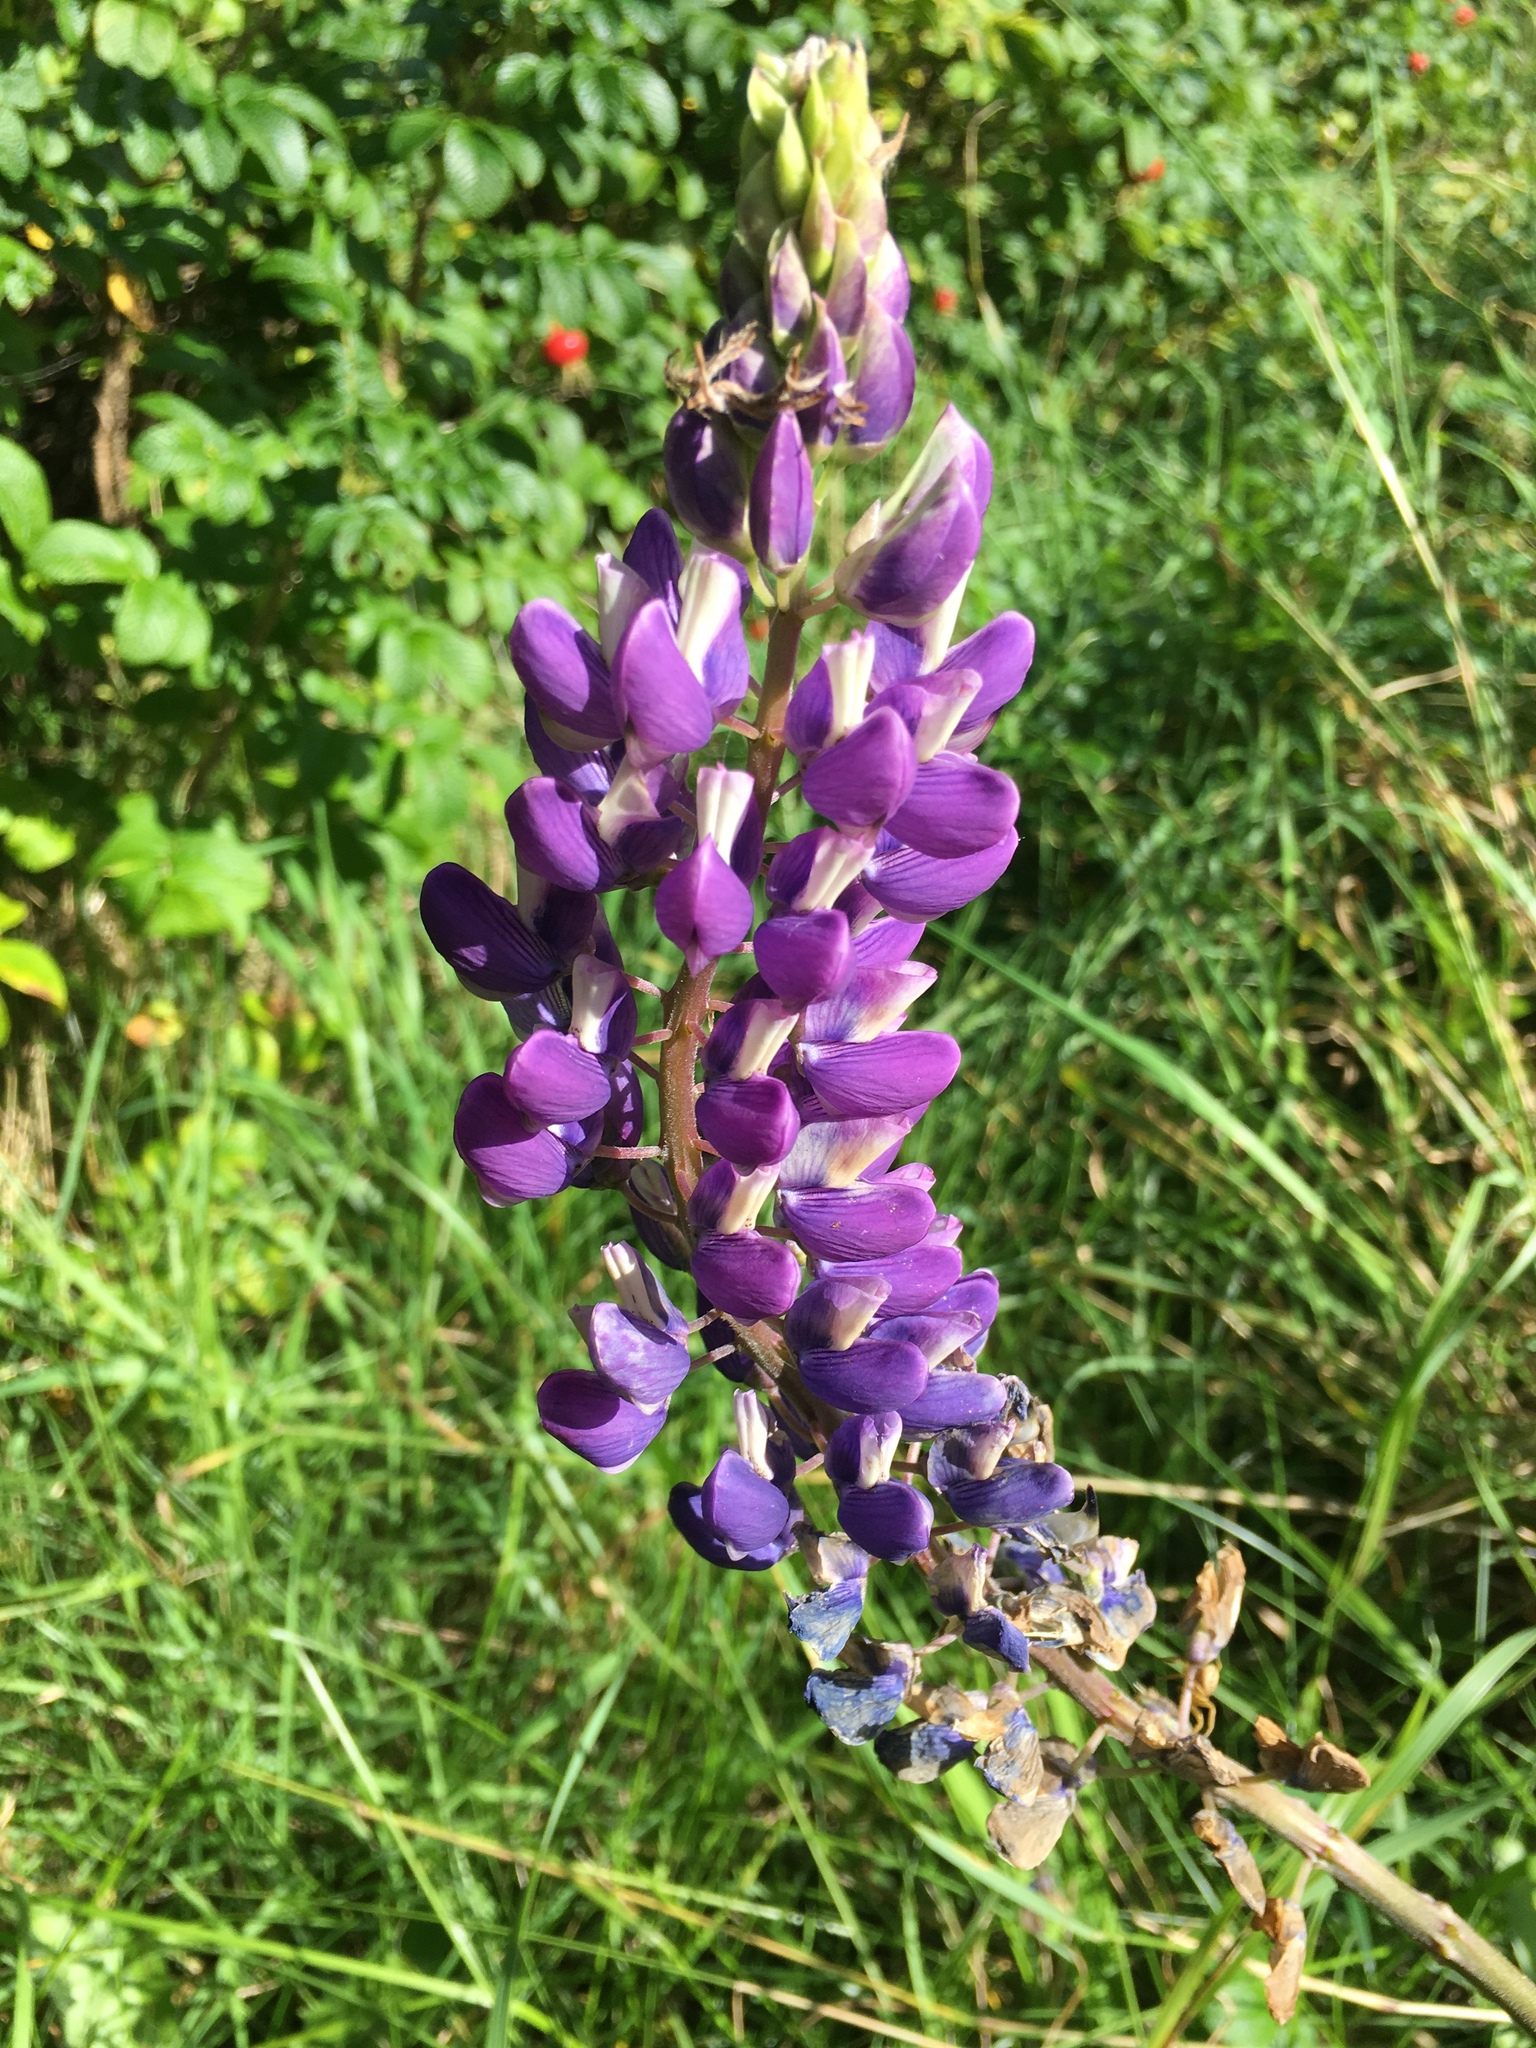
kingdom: Plantae
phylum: Tracheophyta
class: Magnoliopsida
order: Fabales
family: Fabaceae
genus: Lupinus
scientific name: Lupinus polyphyllus
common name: Garden lupin
